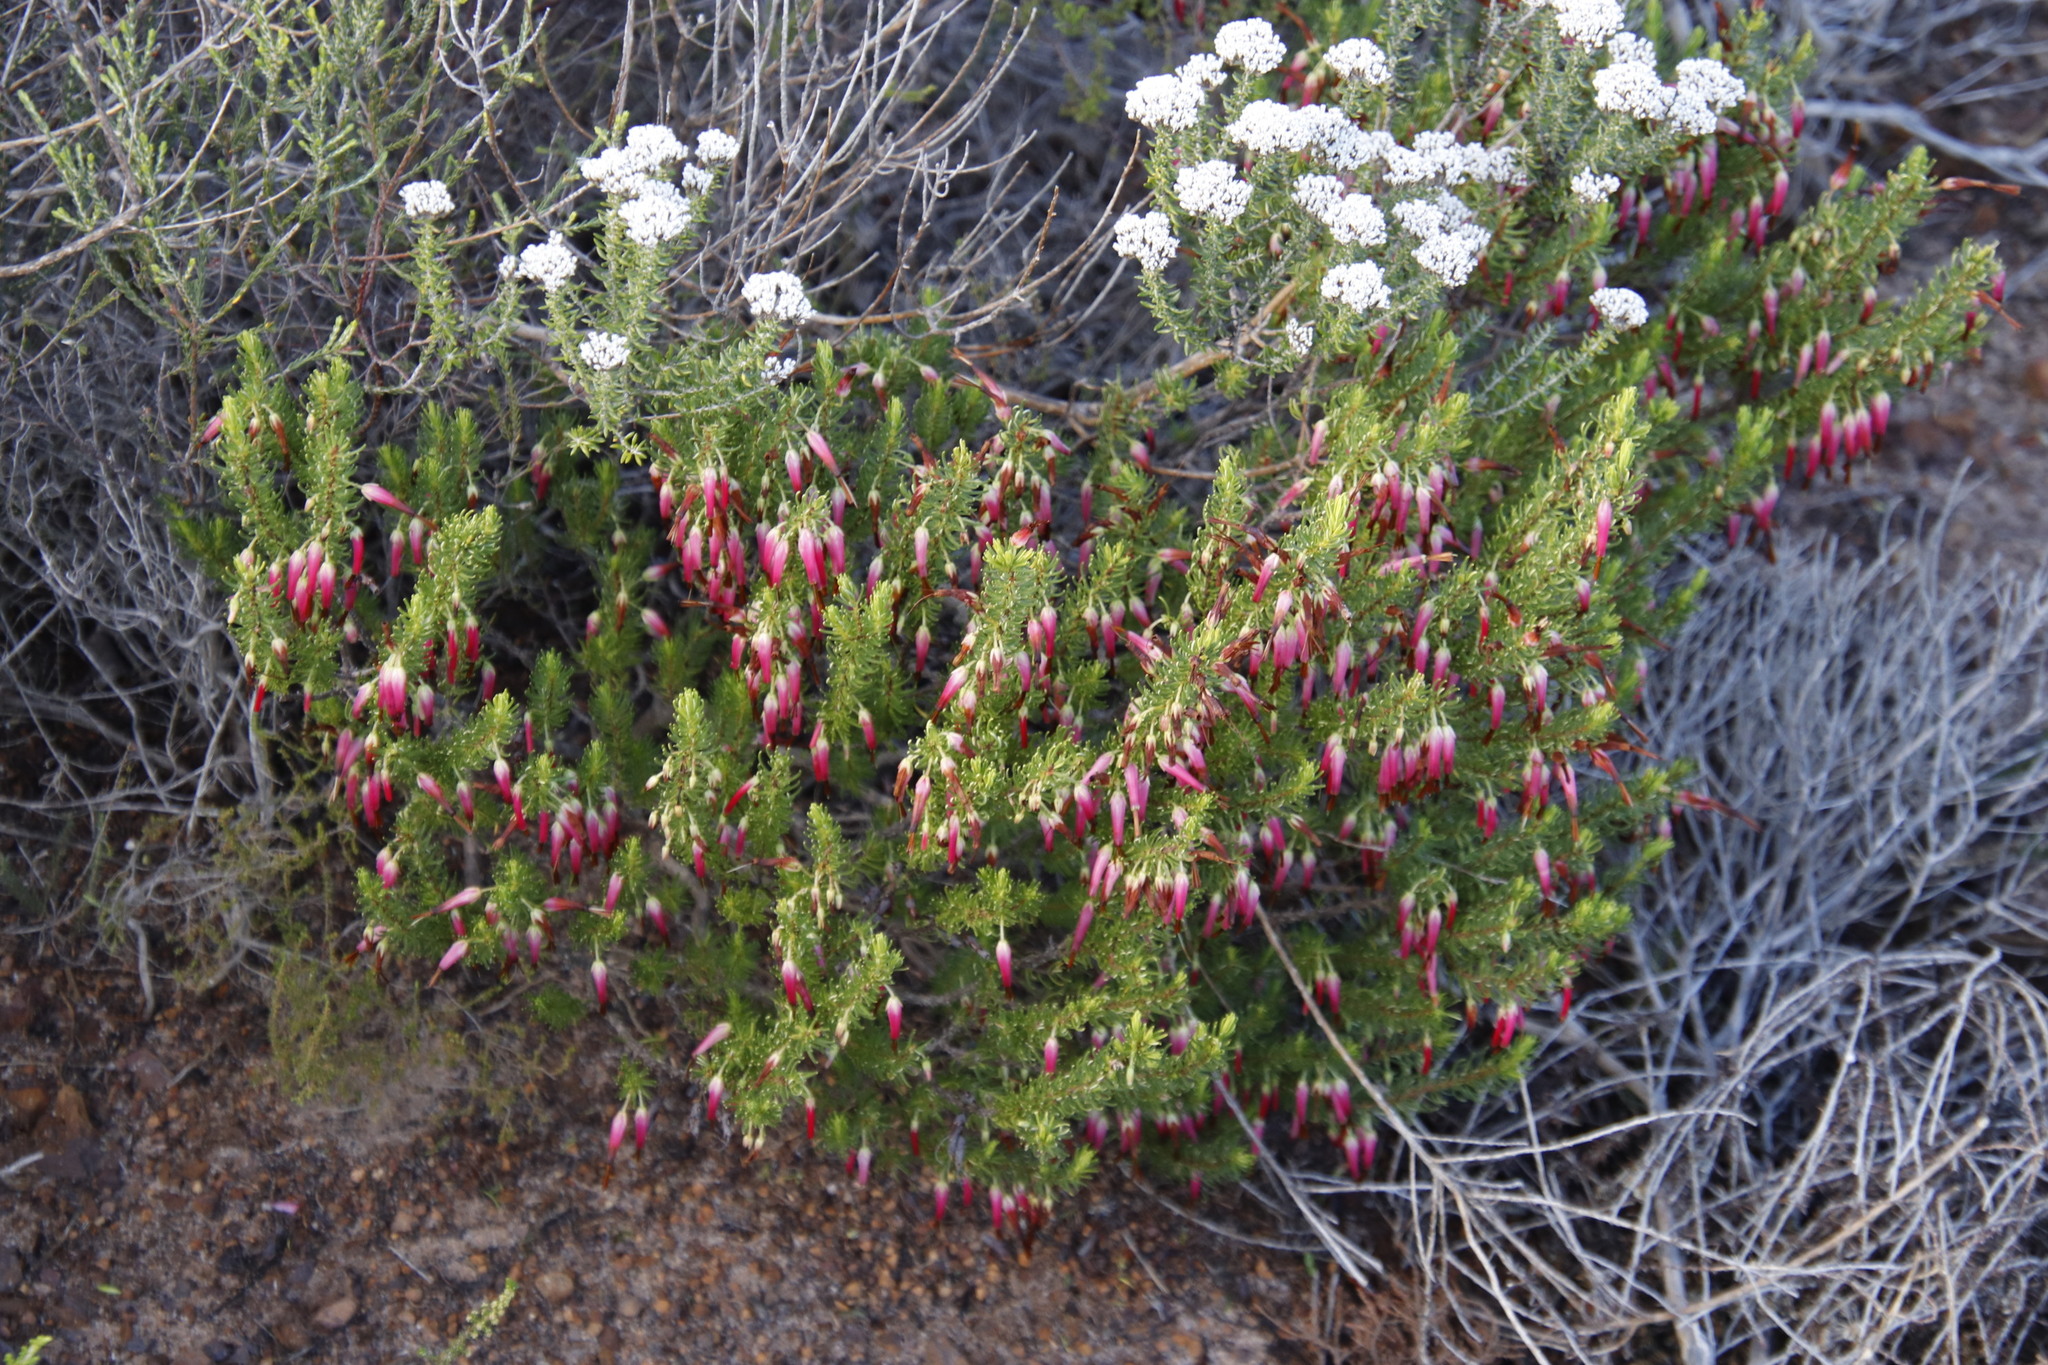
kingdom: Plantae
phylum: Tracheophyta
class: Magnoliopsida
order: Ericales
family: Ericaceae
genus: Erica
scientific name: Erica plukenetii
